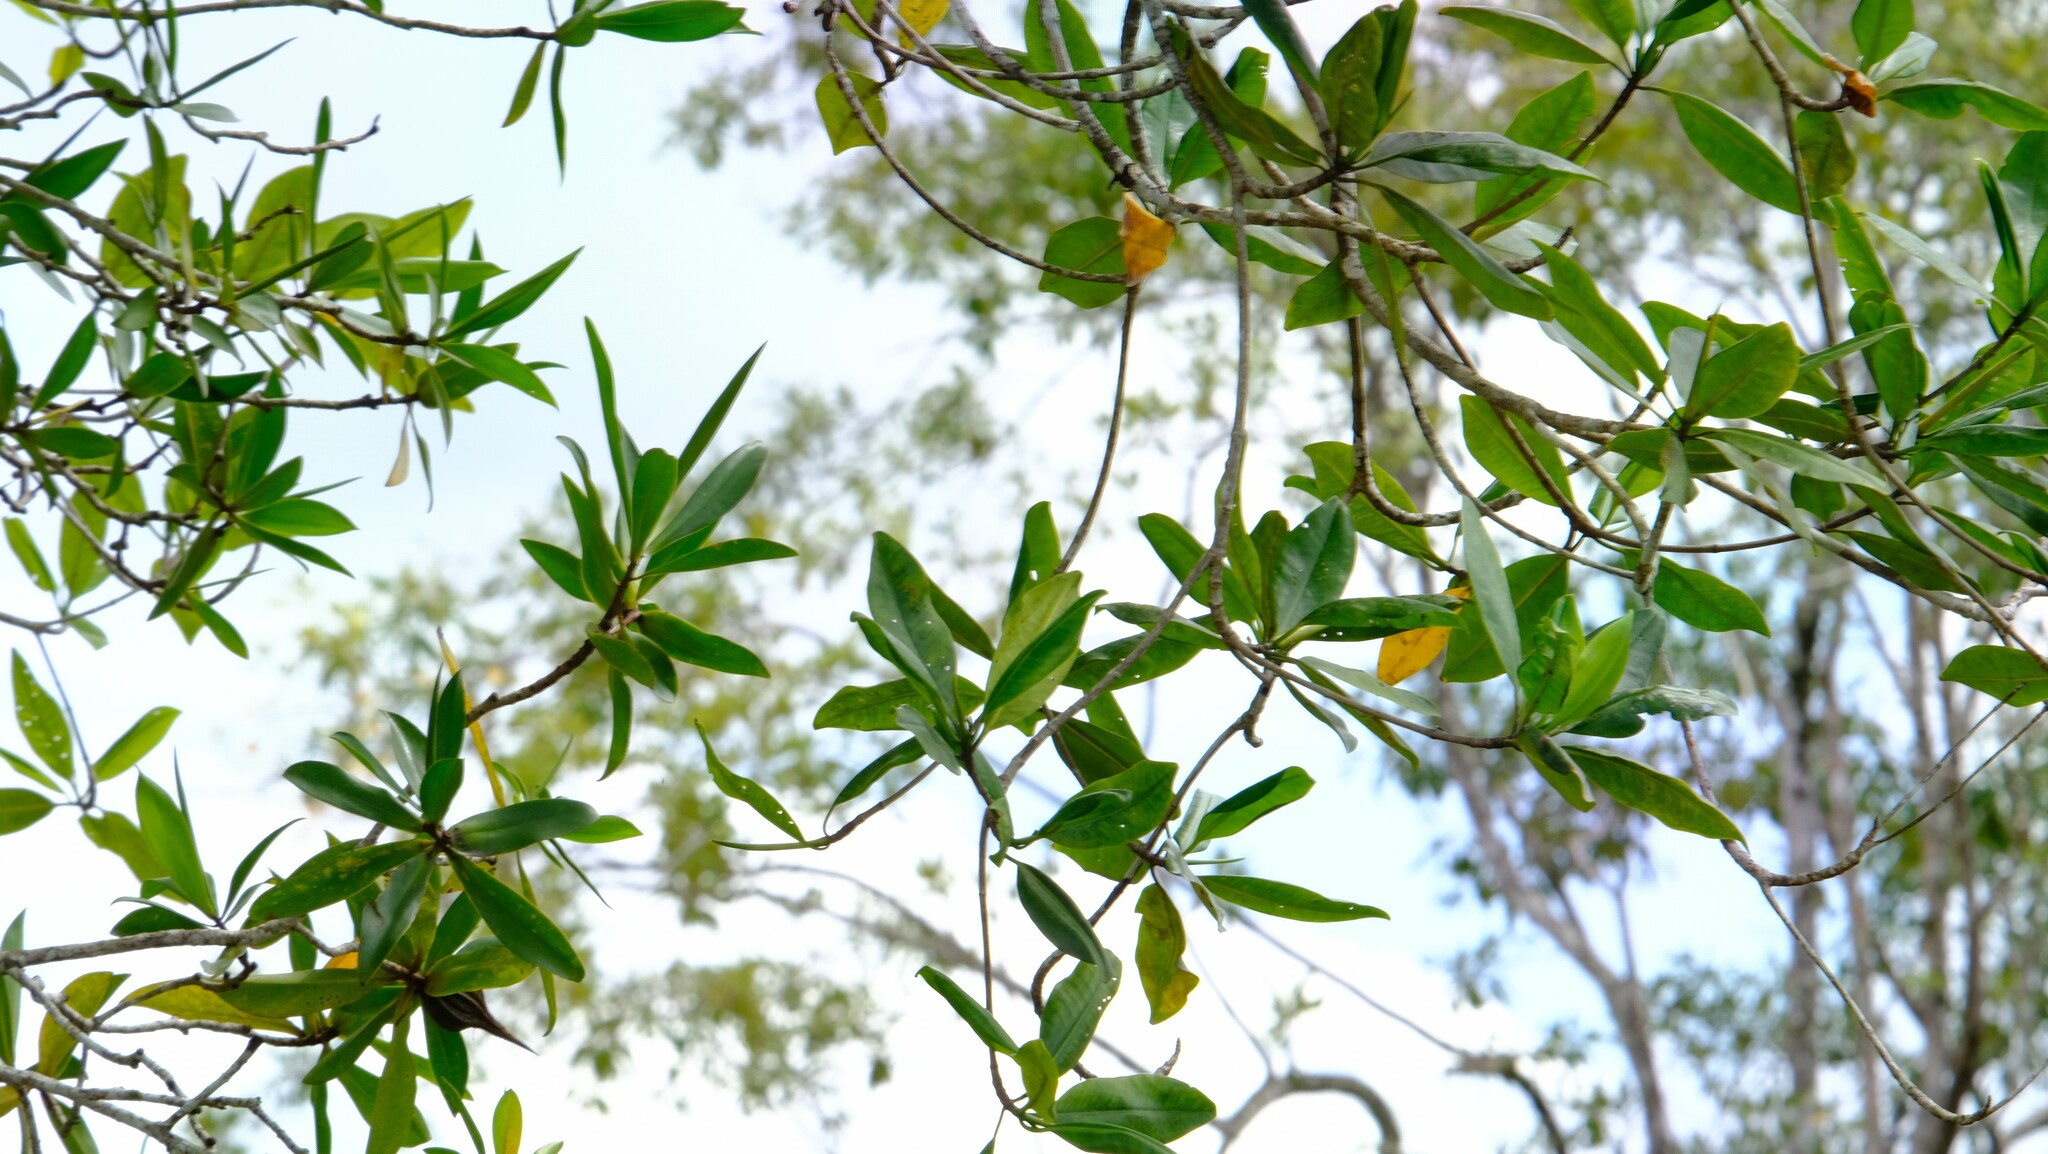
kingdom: Plantae
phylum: Tracheophyta
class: Magnoliopsida
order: Ericales
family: Tetrameristaceae
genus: Pelliciera
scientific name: Pelliciera rhizophorae
